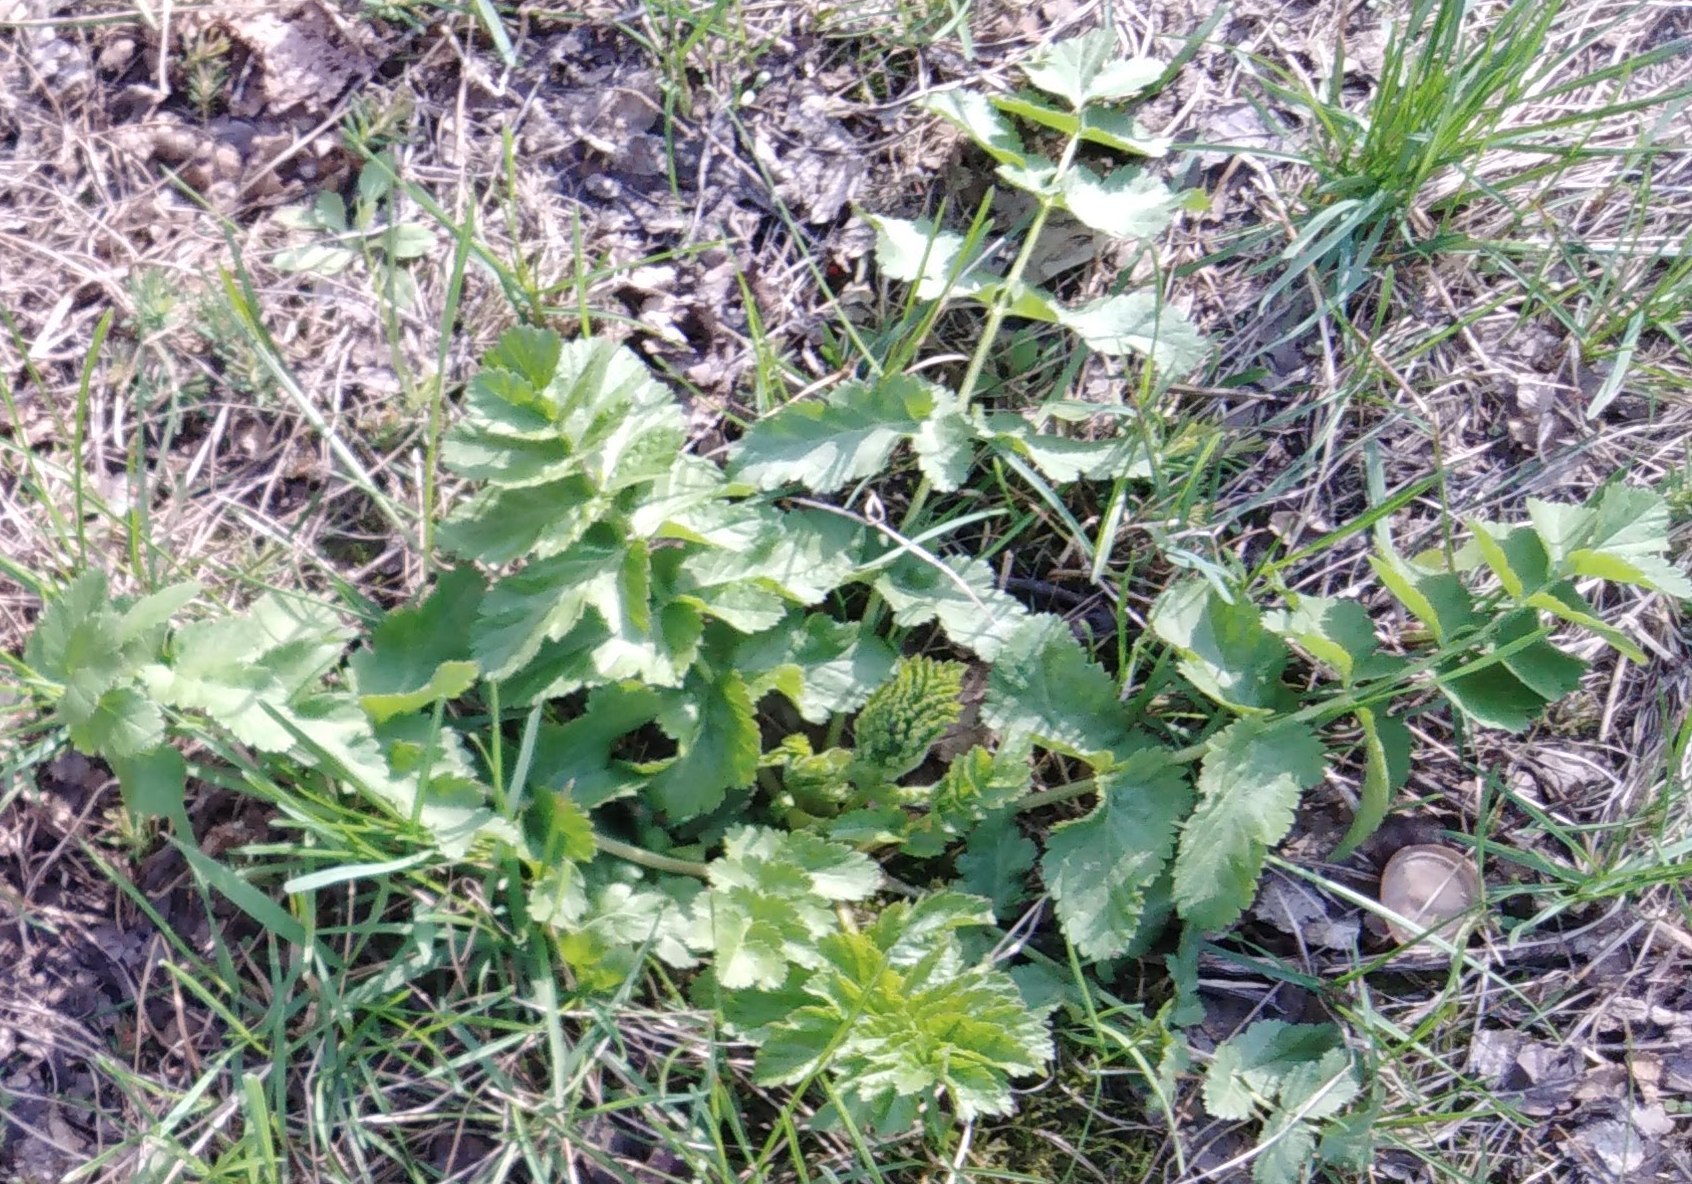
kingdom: Plantae
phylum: Tracheophyta
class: Magnoliopsida
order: Apiales
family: Apiaceae
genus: Pastinaca
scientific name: Pastinaca sativa
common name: Wild parsnip
